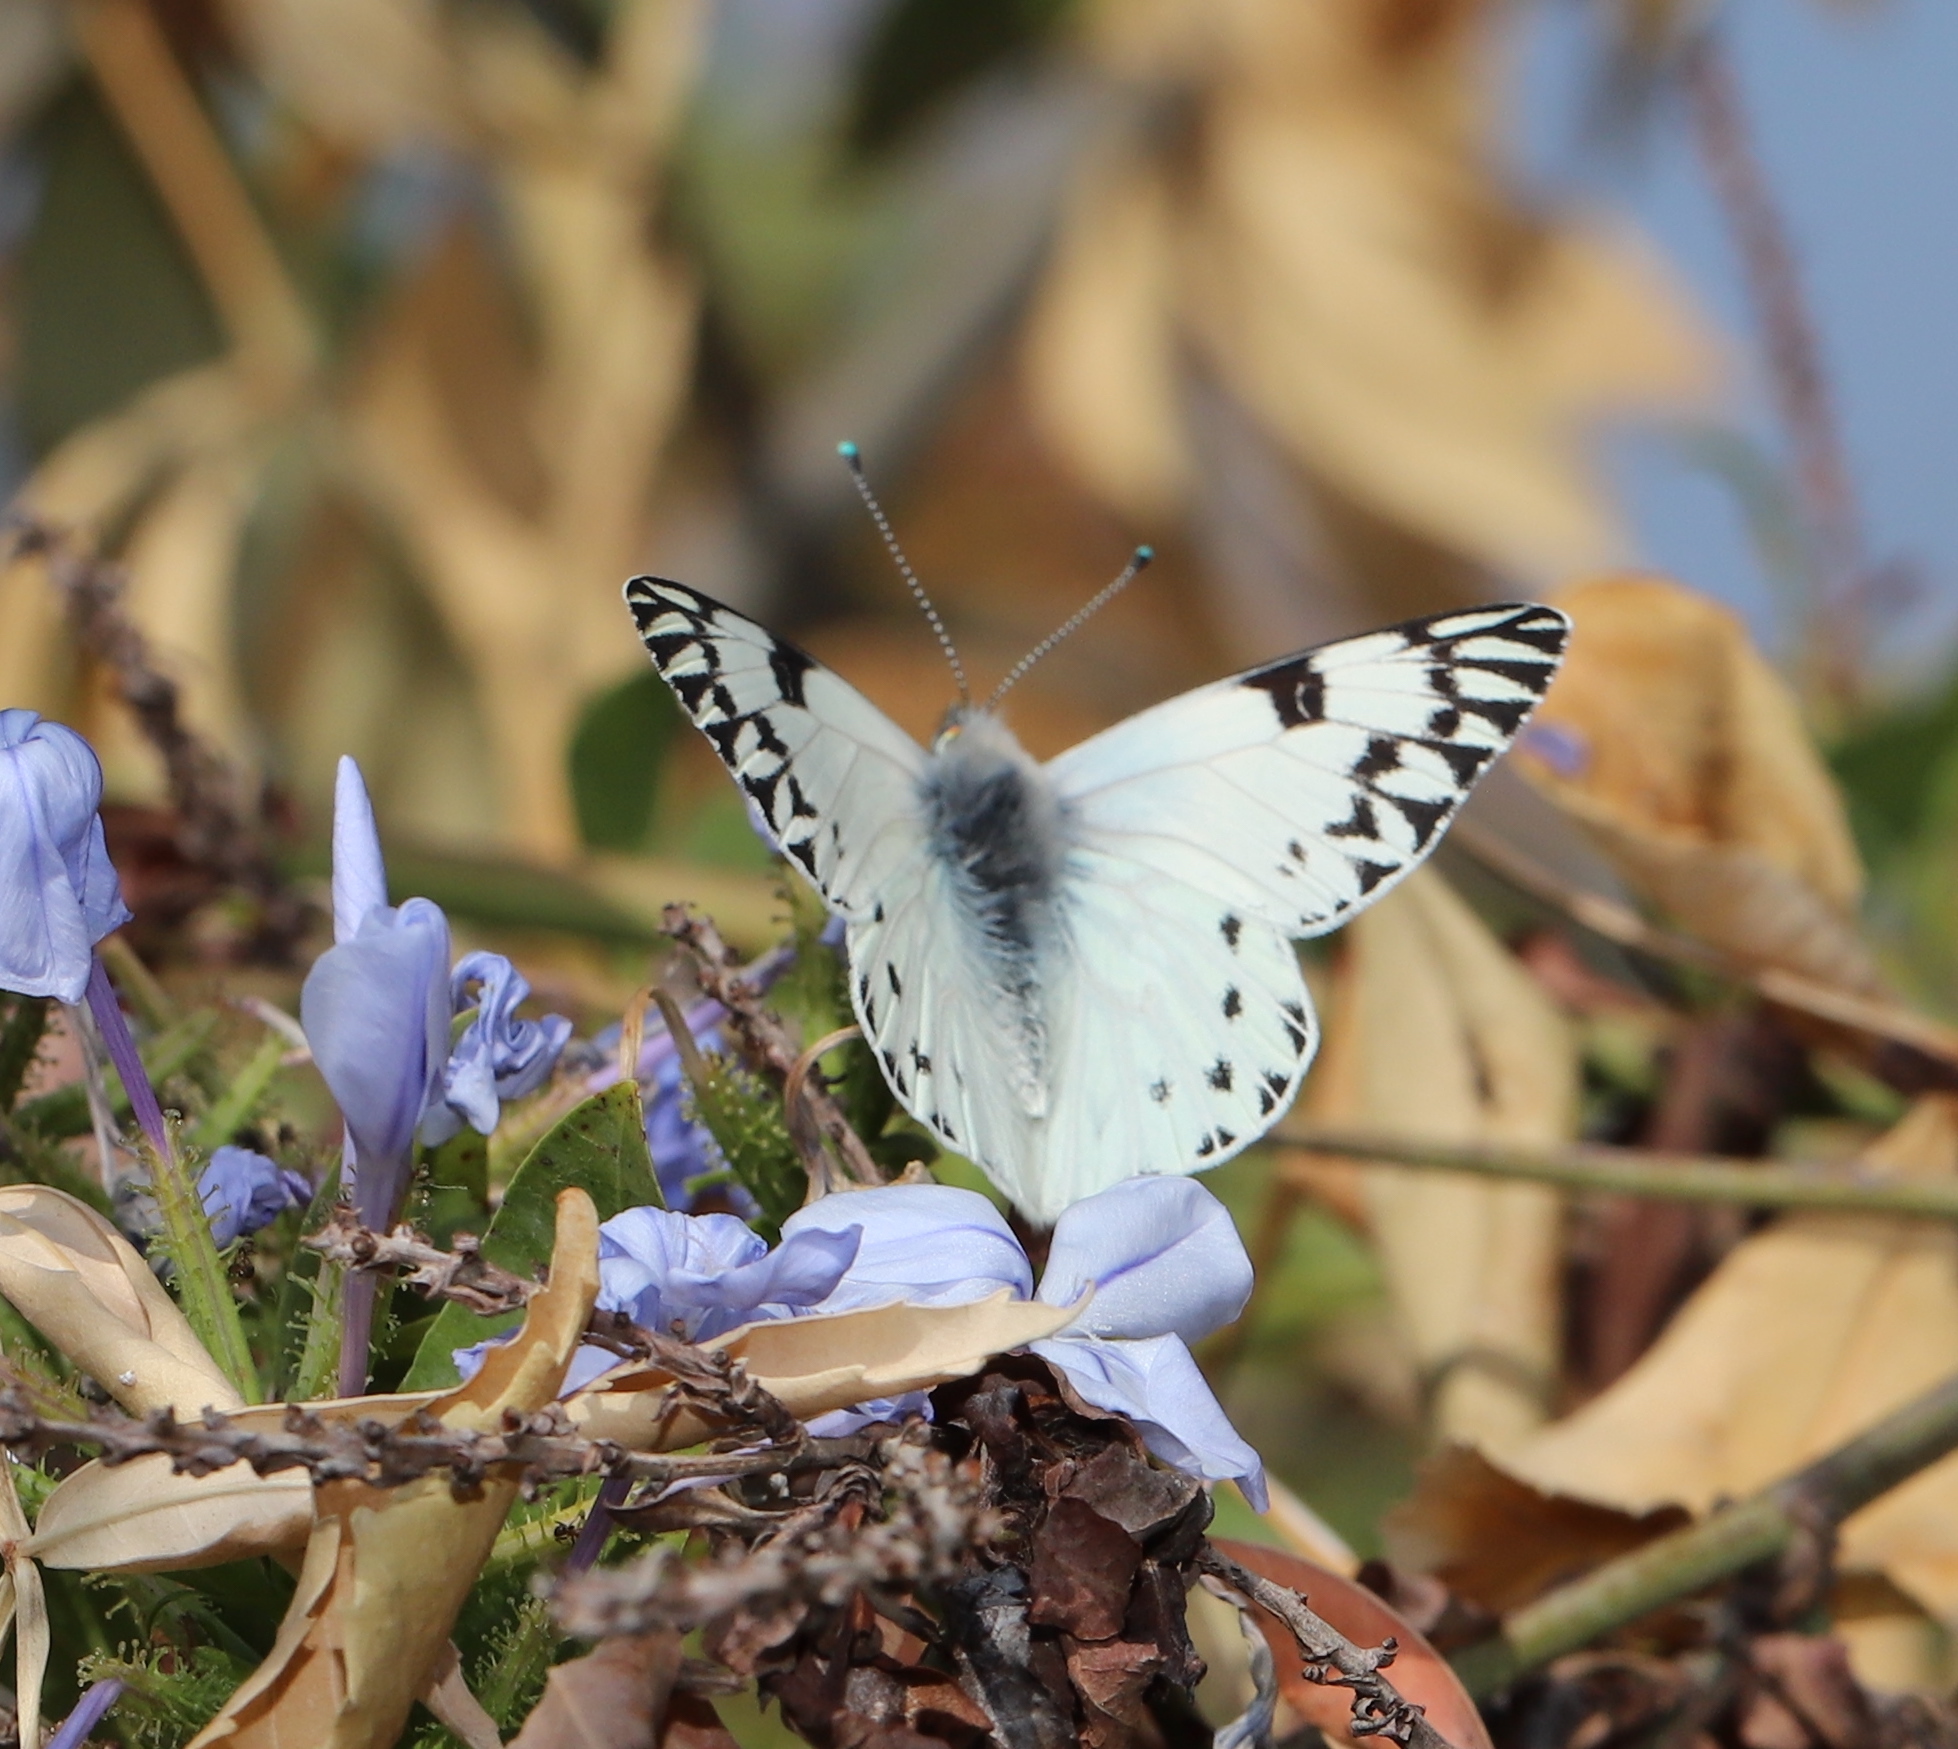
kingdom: Animalia
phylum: Arthropoda
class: Insecta
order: Lepidoptera
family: Pieridae
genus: Tatochila
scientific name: Tatochila autodice
